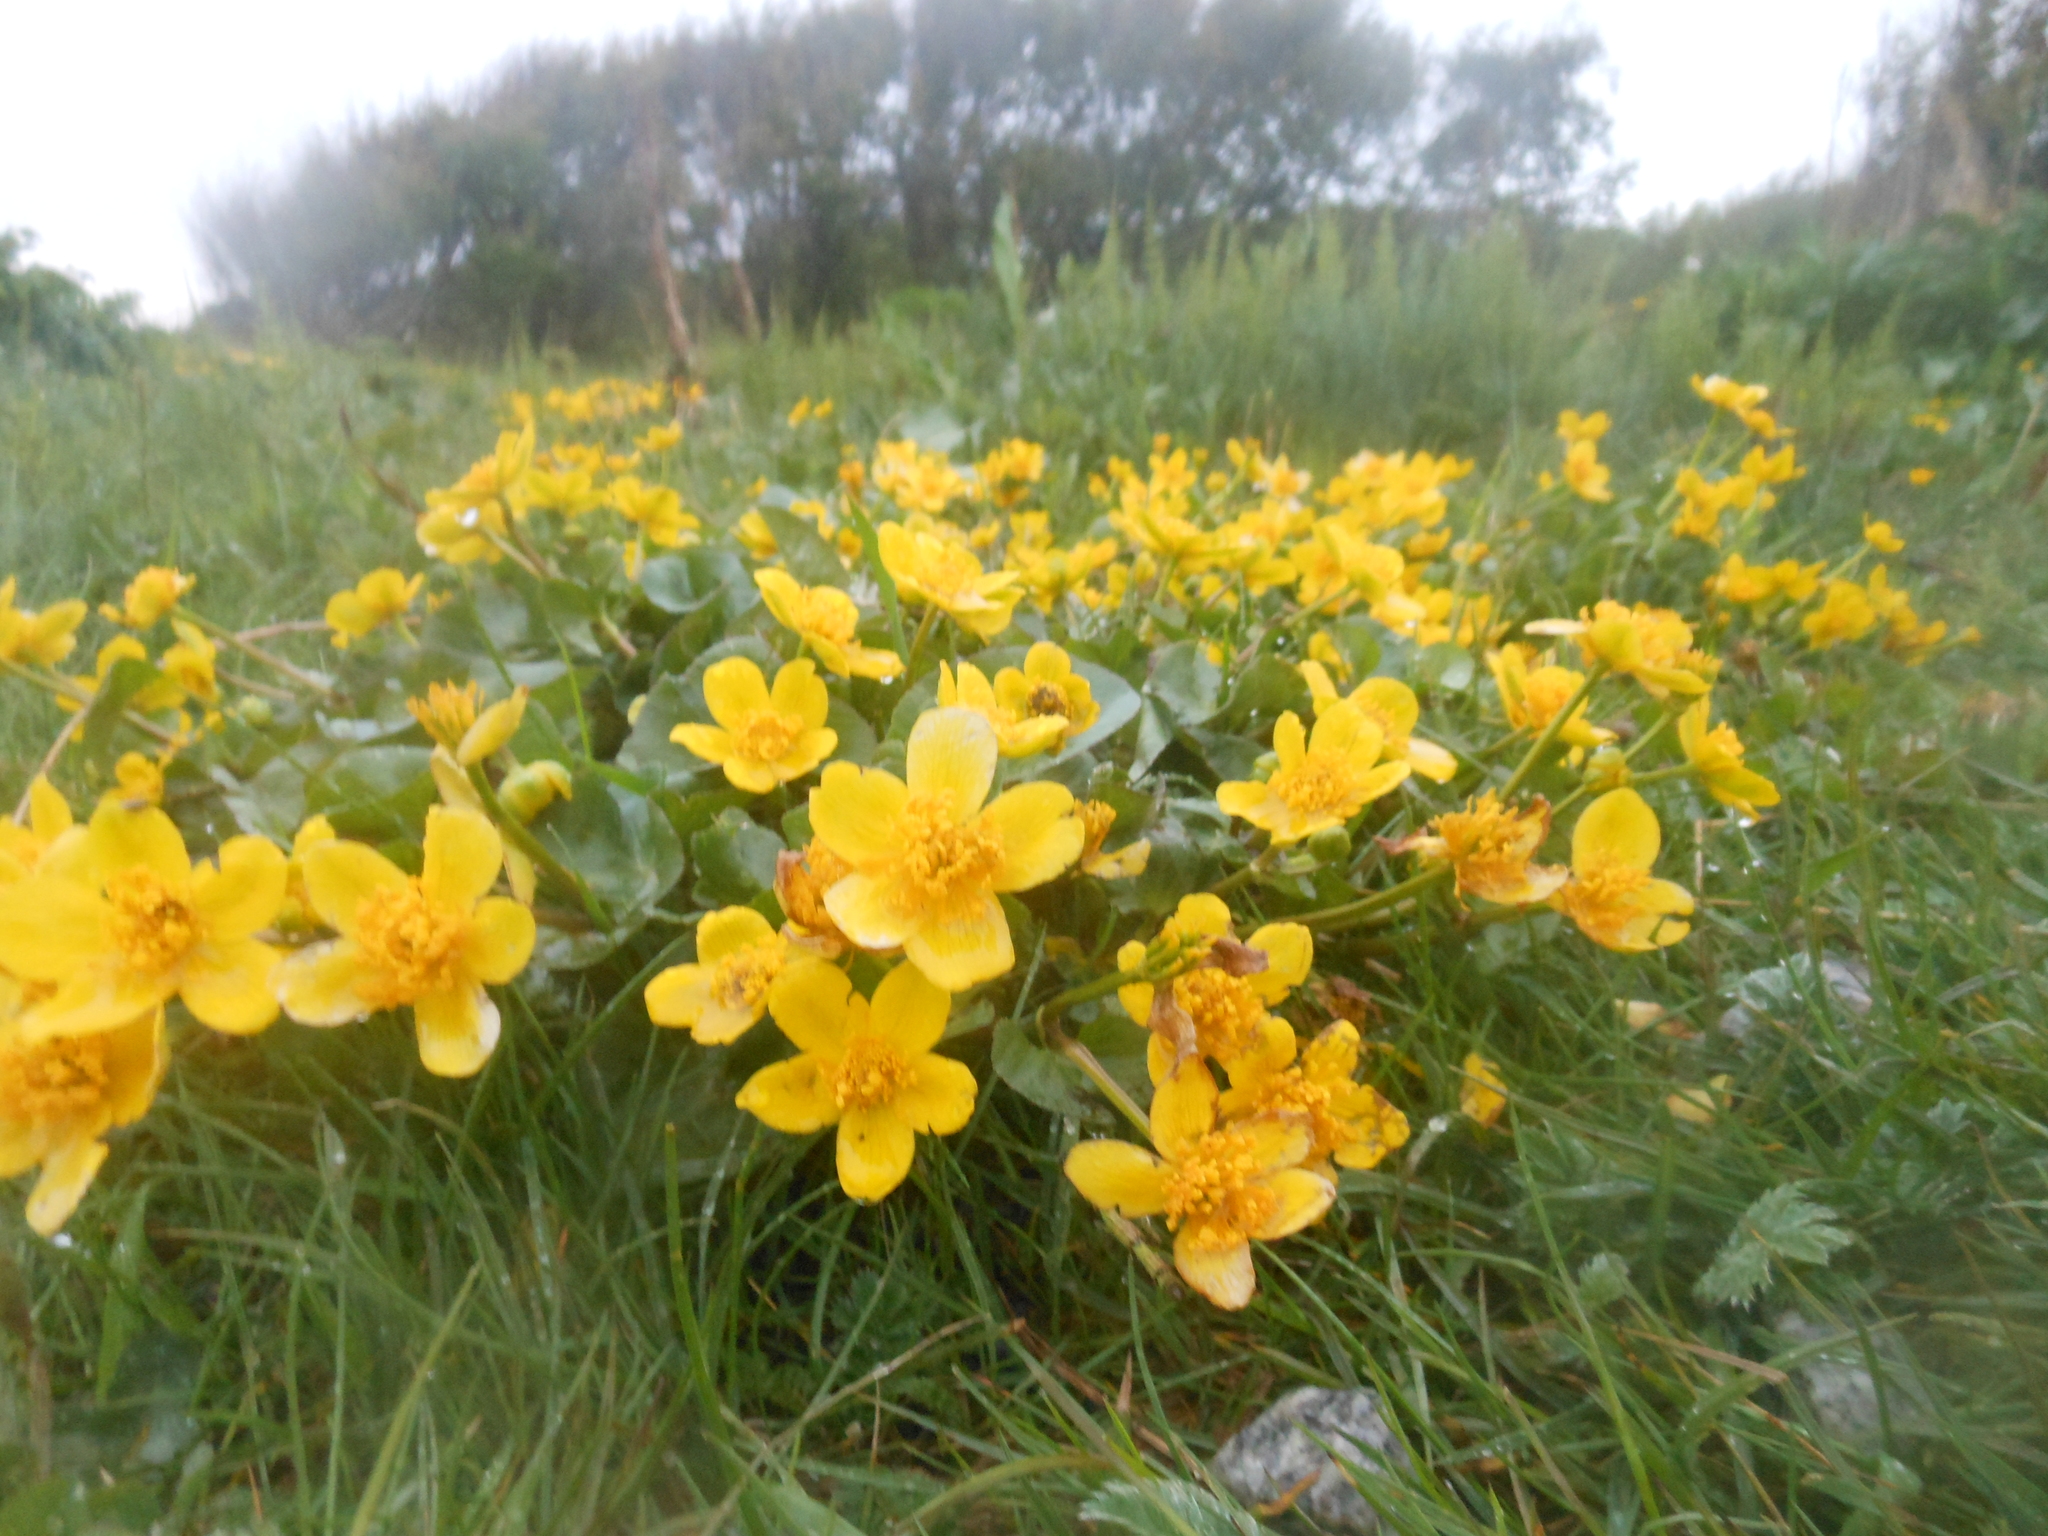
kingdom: Plantae
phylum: Tracheophyta
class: Magnoliopsida
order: Ranunculales
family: Ranunculaceae
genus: Caltha
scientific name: Caltha palustris
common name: Marsh marigold
